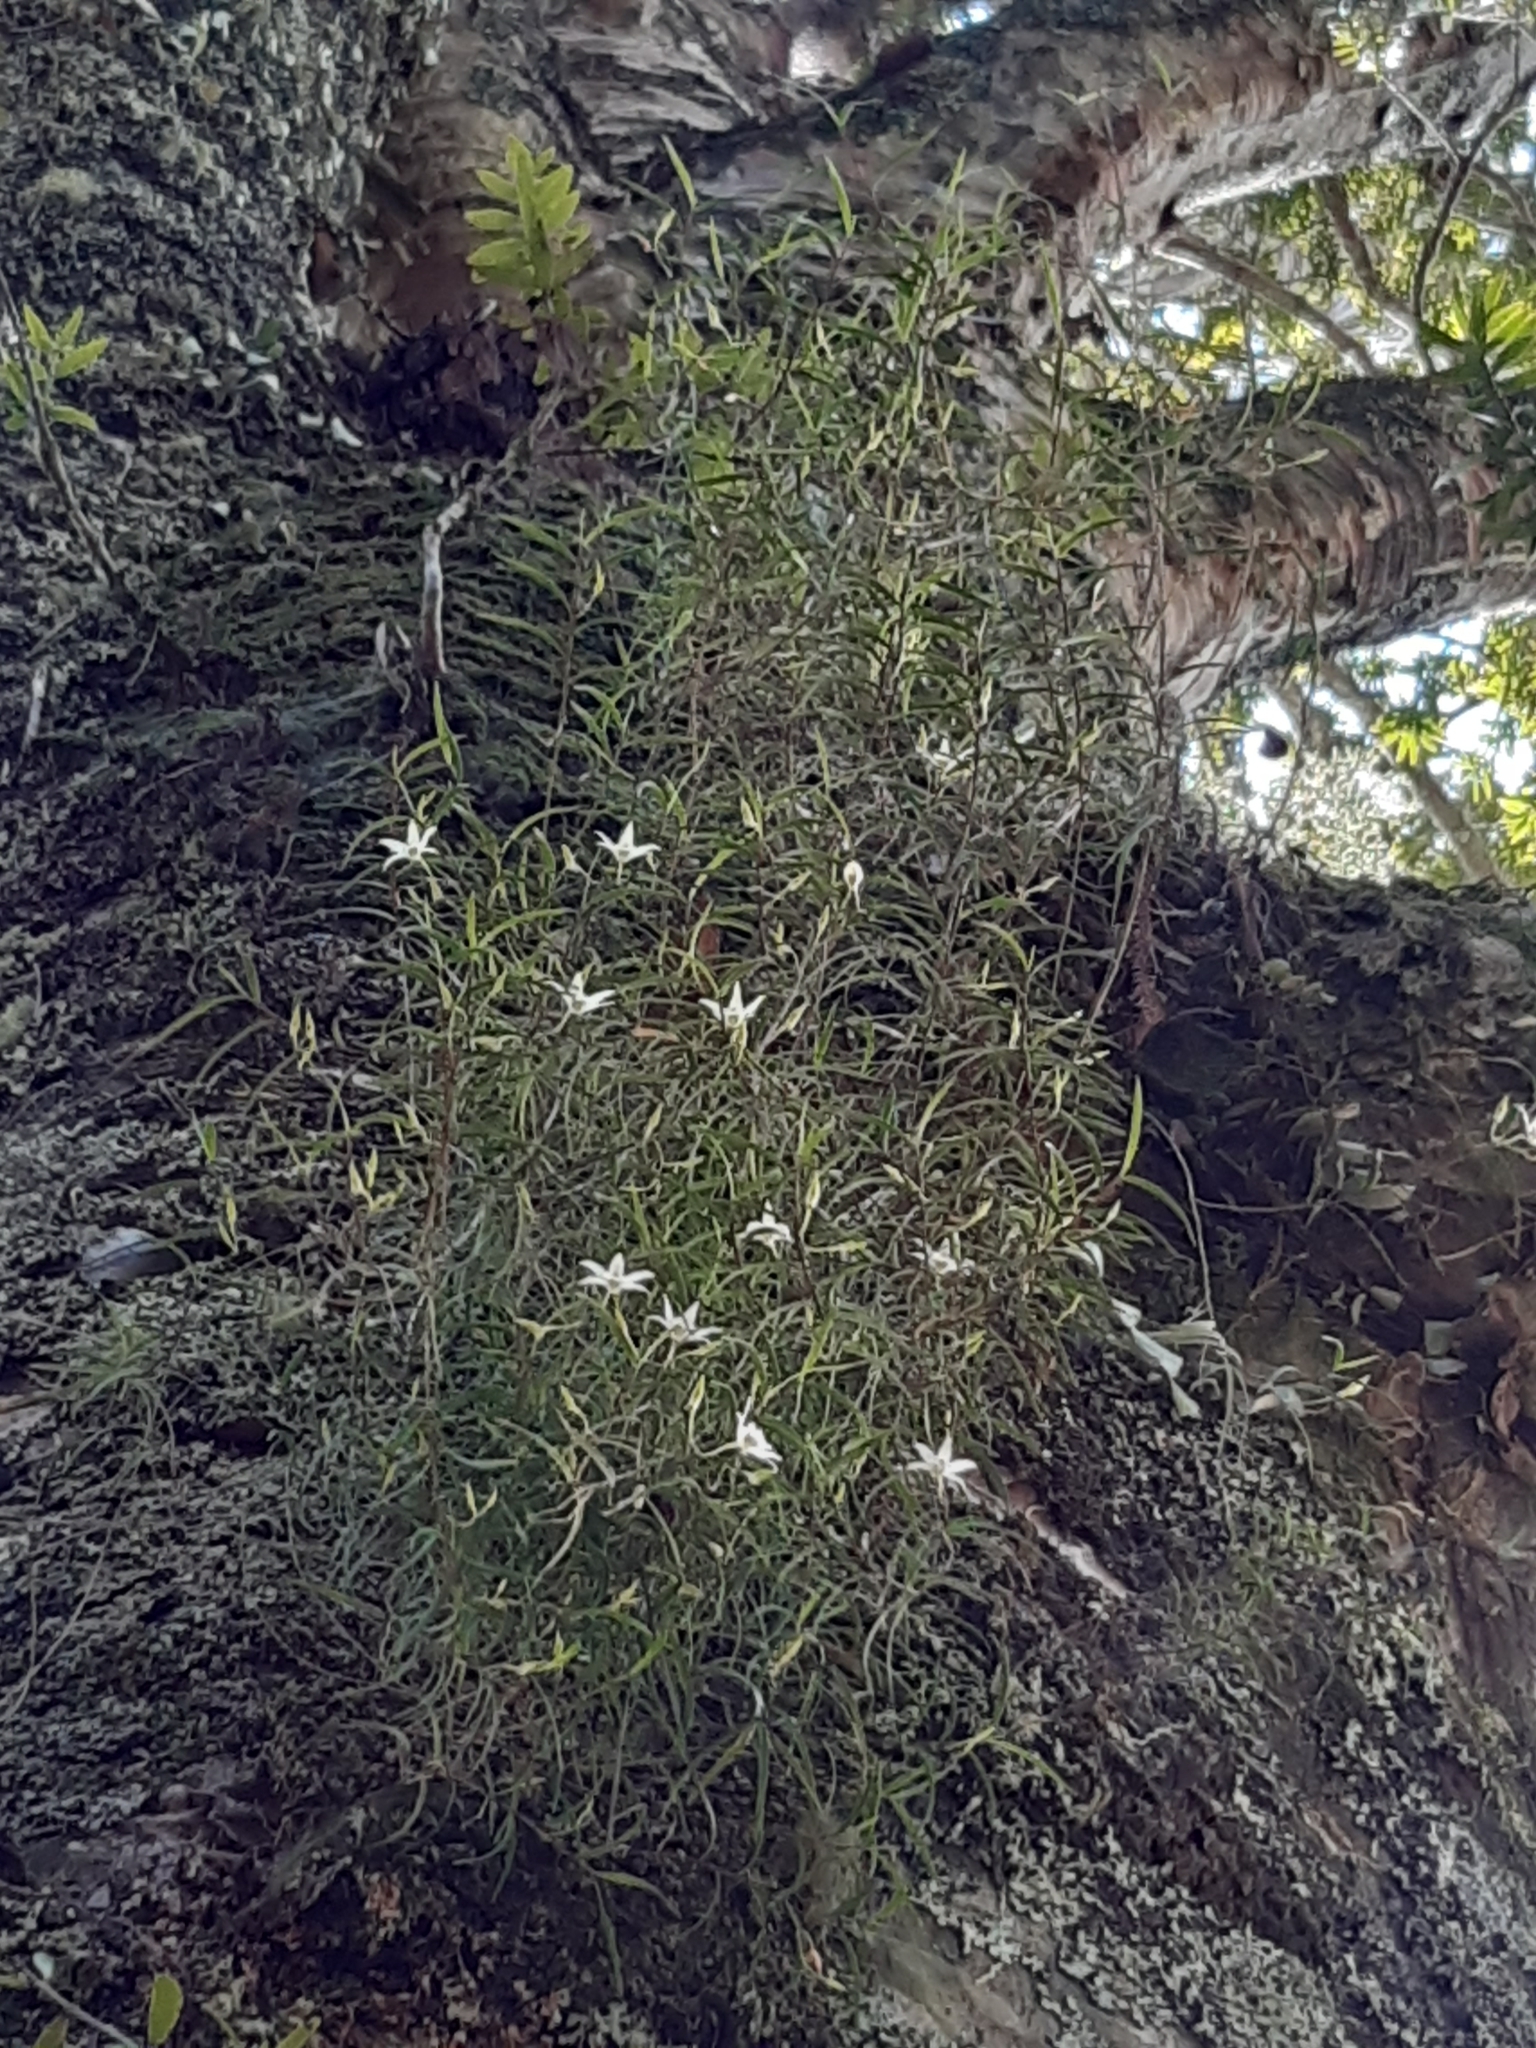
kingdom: Plantae
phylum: Tracheophyta
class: Liliopsida
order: Asparagales
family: Orchidaceae
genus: Dendrobium
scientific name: Dendrobium cunninghamii
